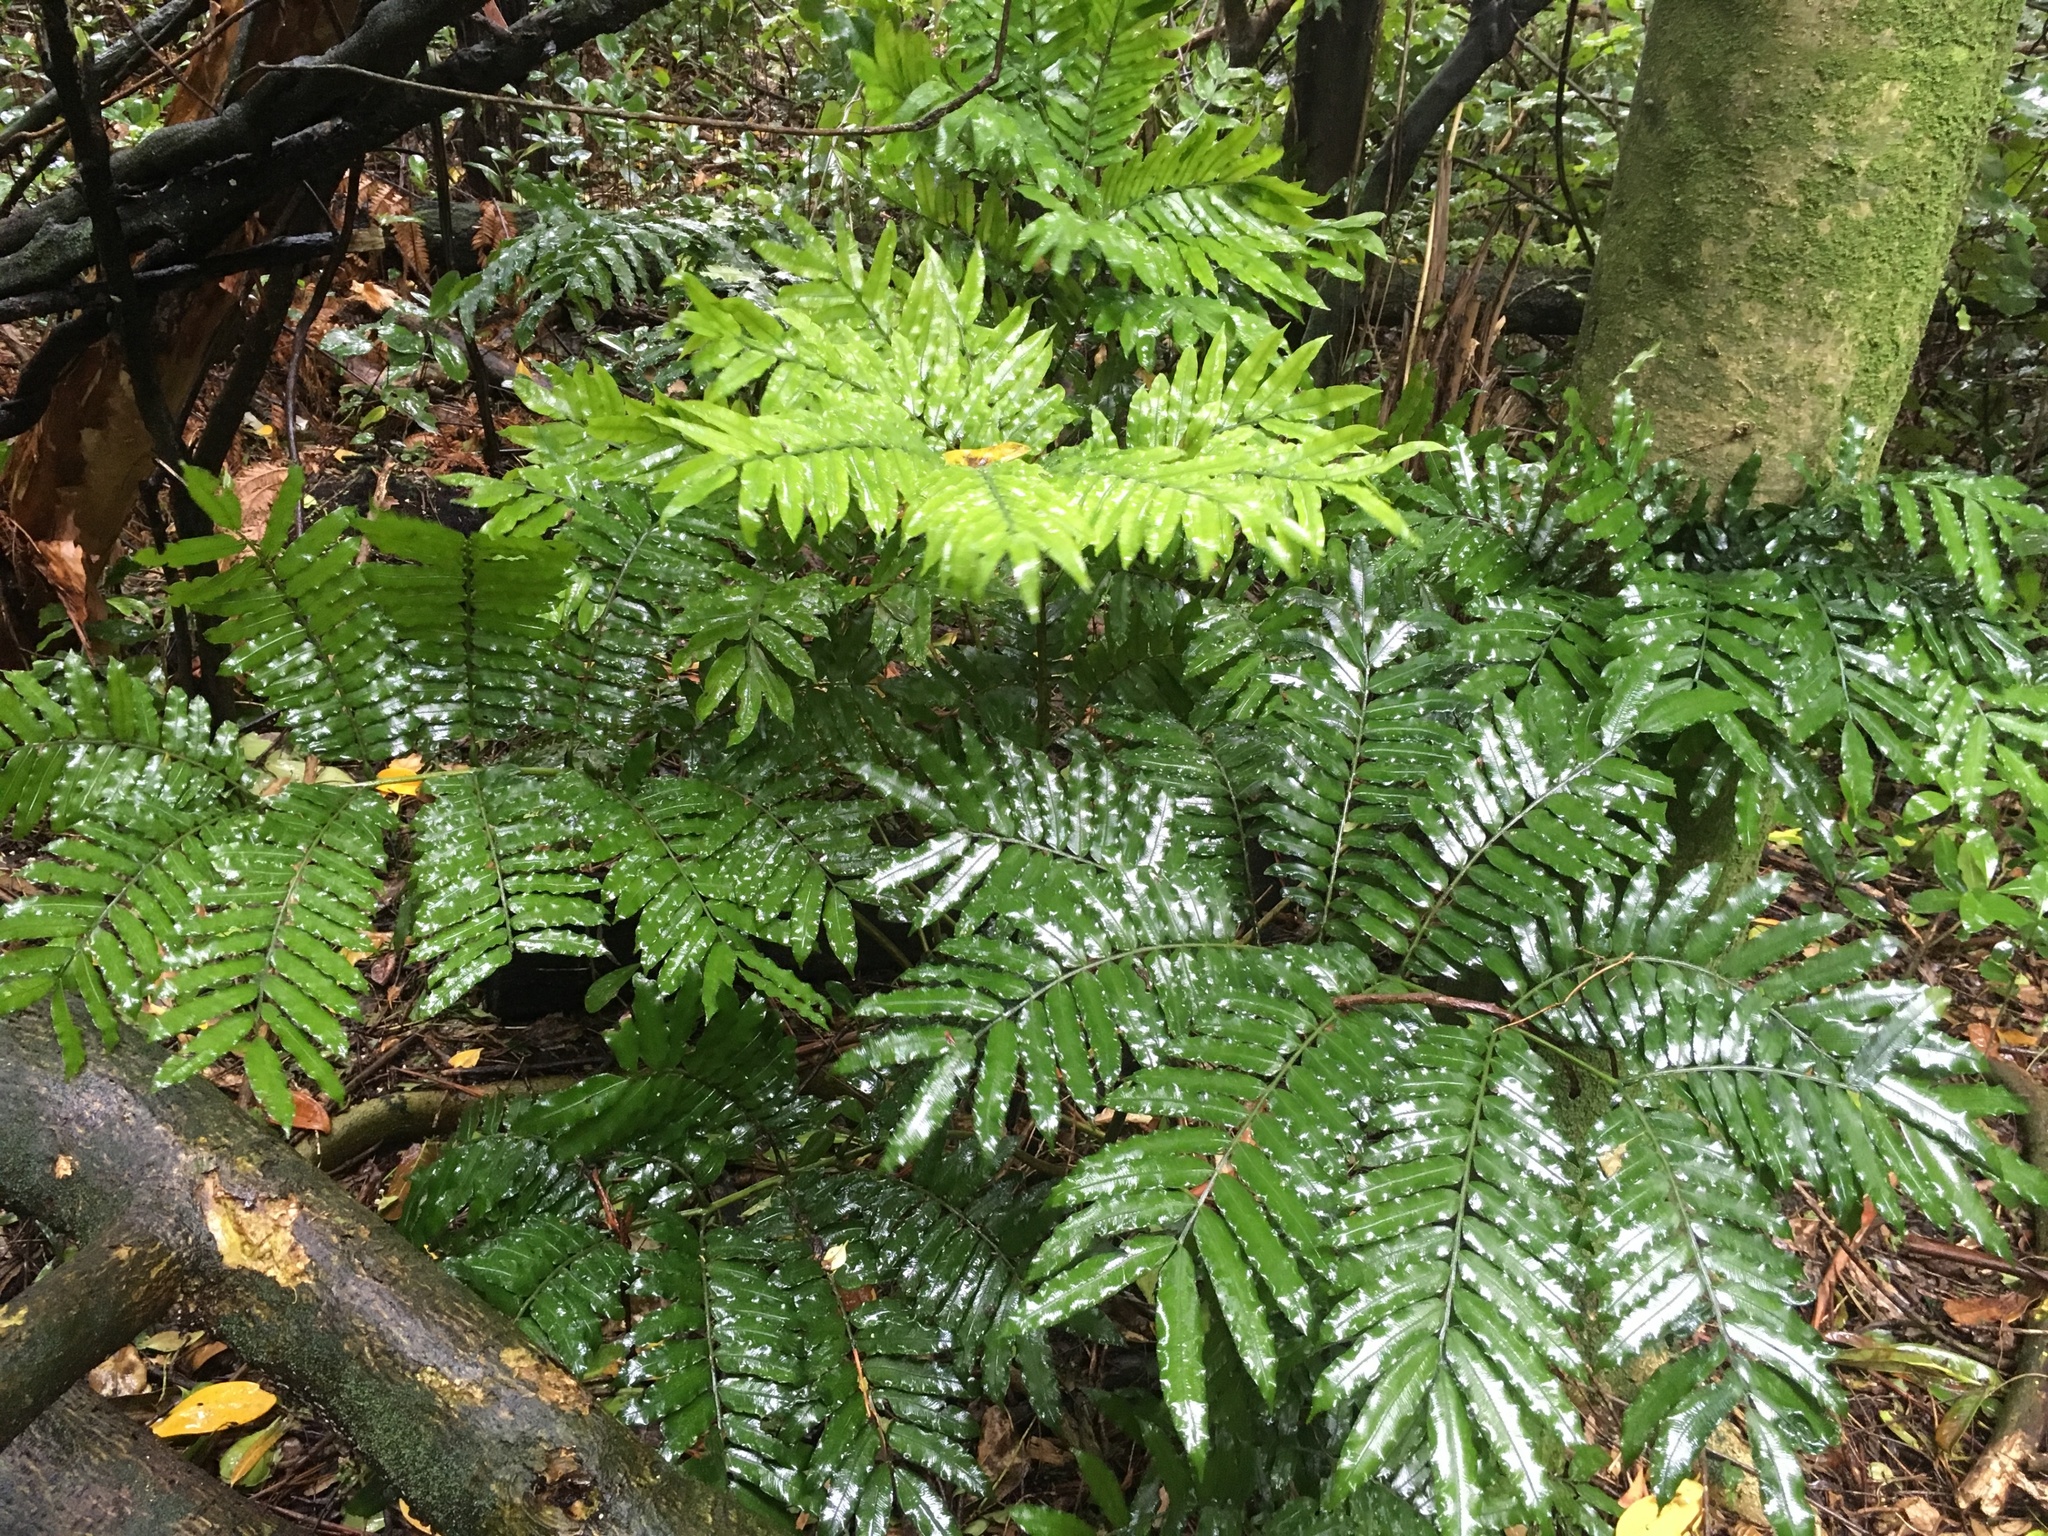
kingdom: Plantae
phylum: Tracheophyta
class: Polypodiopsida
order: Marattiales
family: Marattiaceae
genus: Ptisana
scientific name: Ptisana salicina
